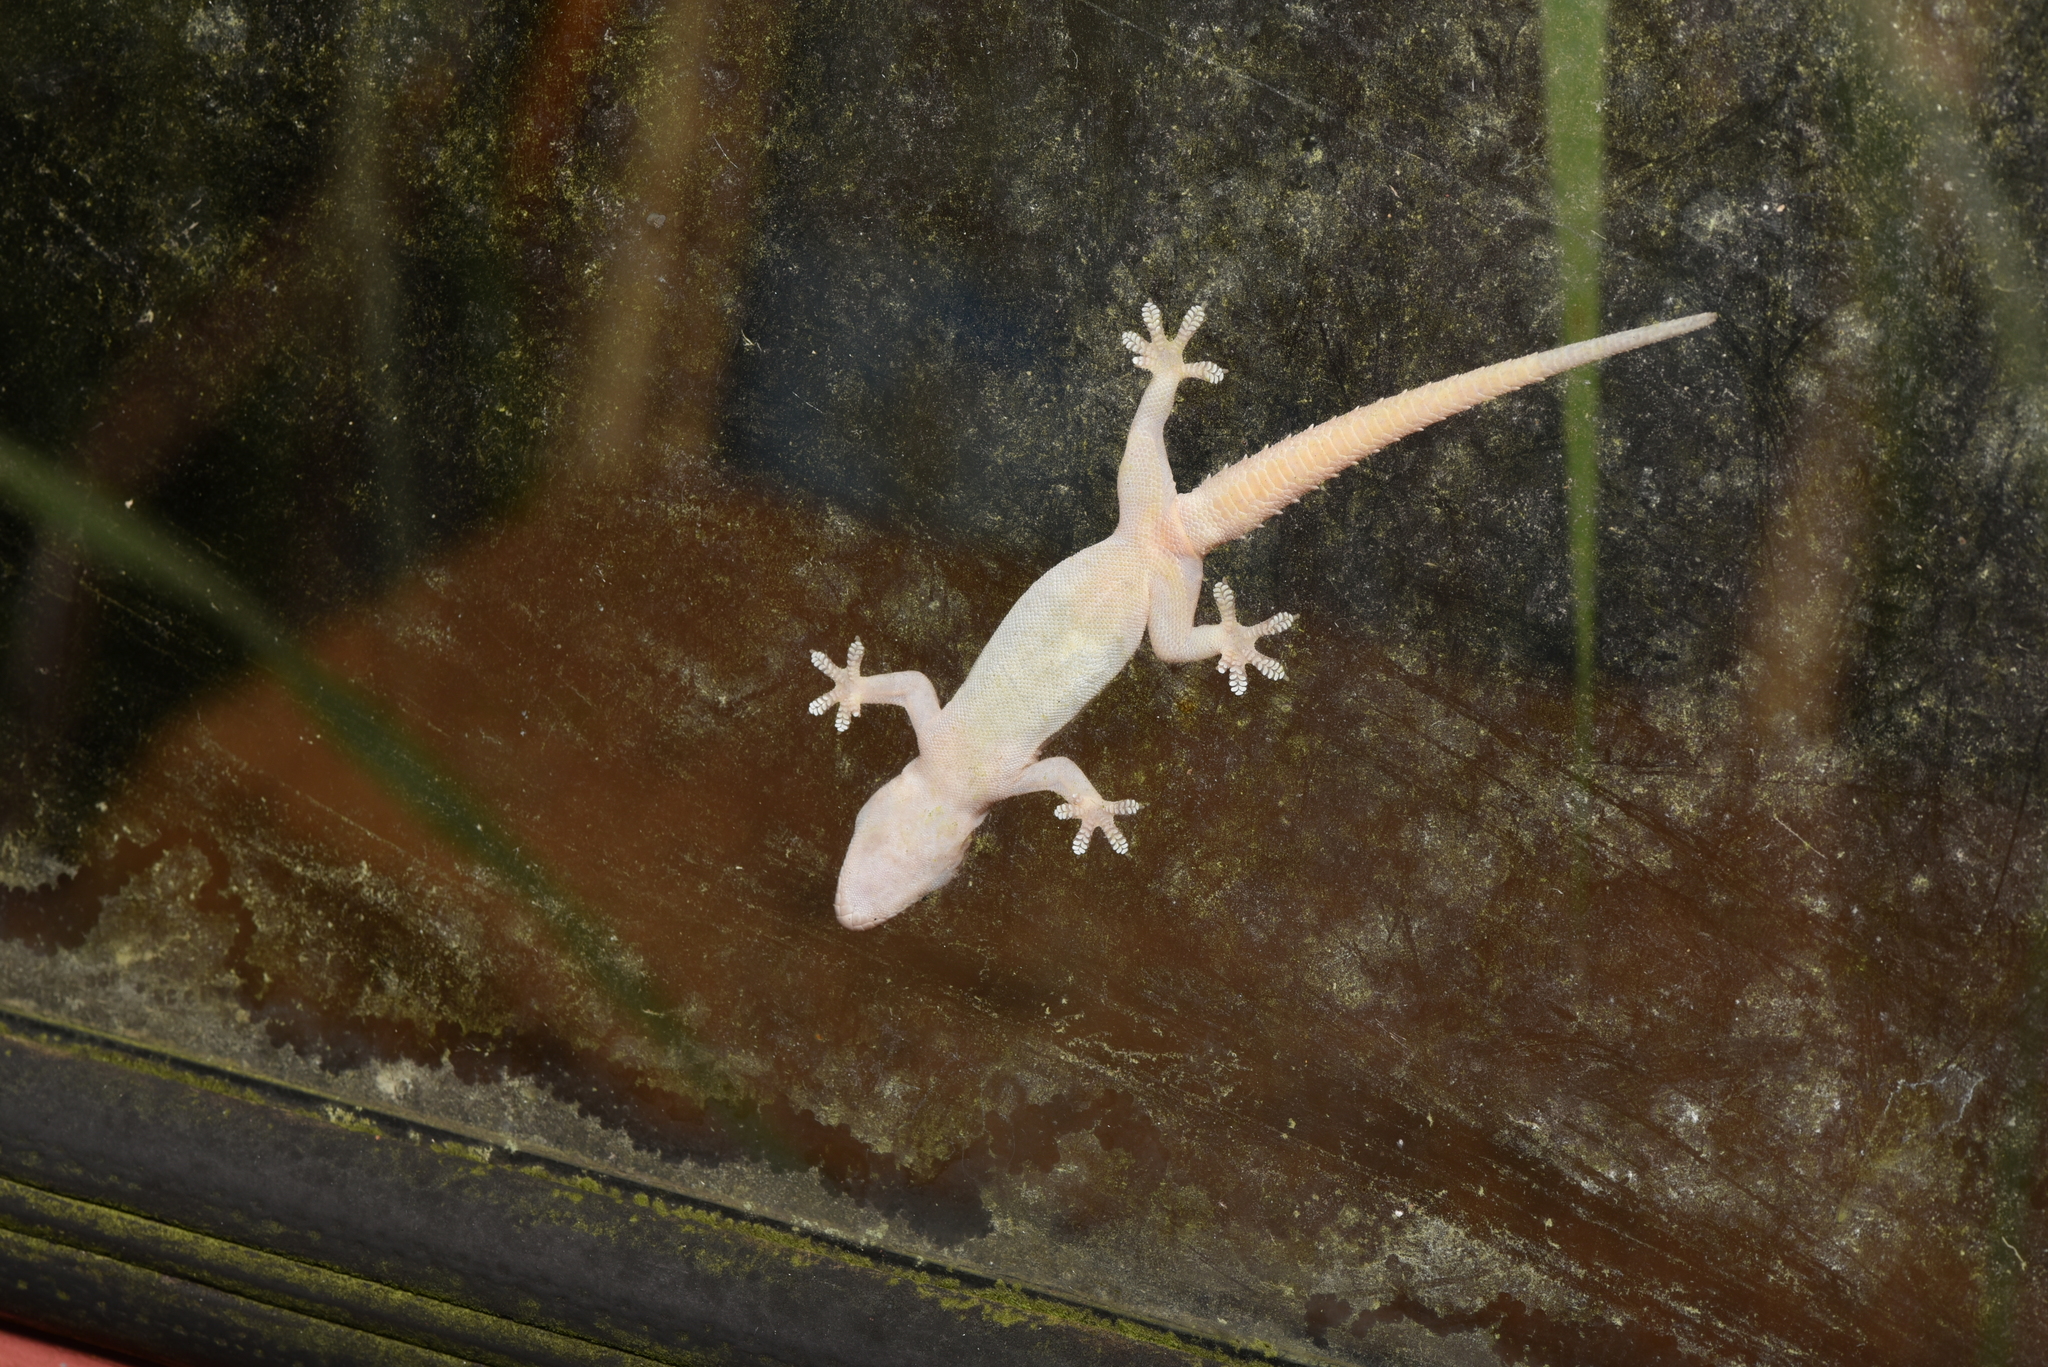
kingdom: Animalia
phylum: Chordata
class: Squamata
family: Gekkonidae
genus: Hemidactylus
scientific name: Hemidactylus frenatus
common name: Common house gecko
